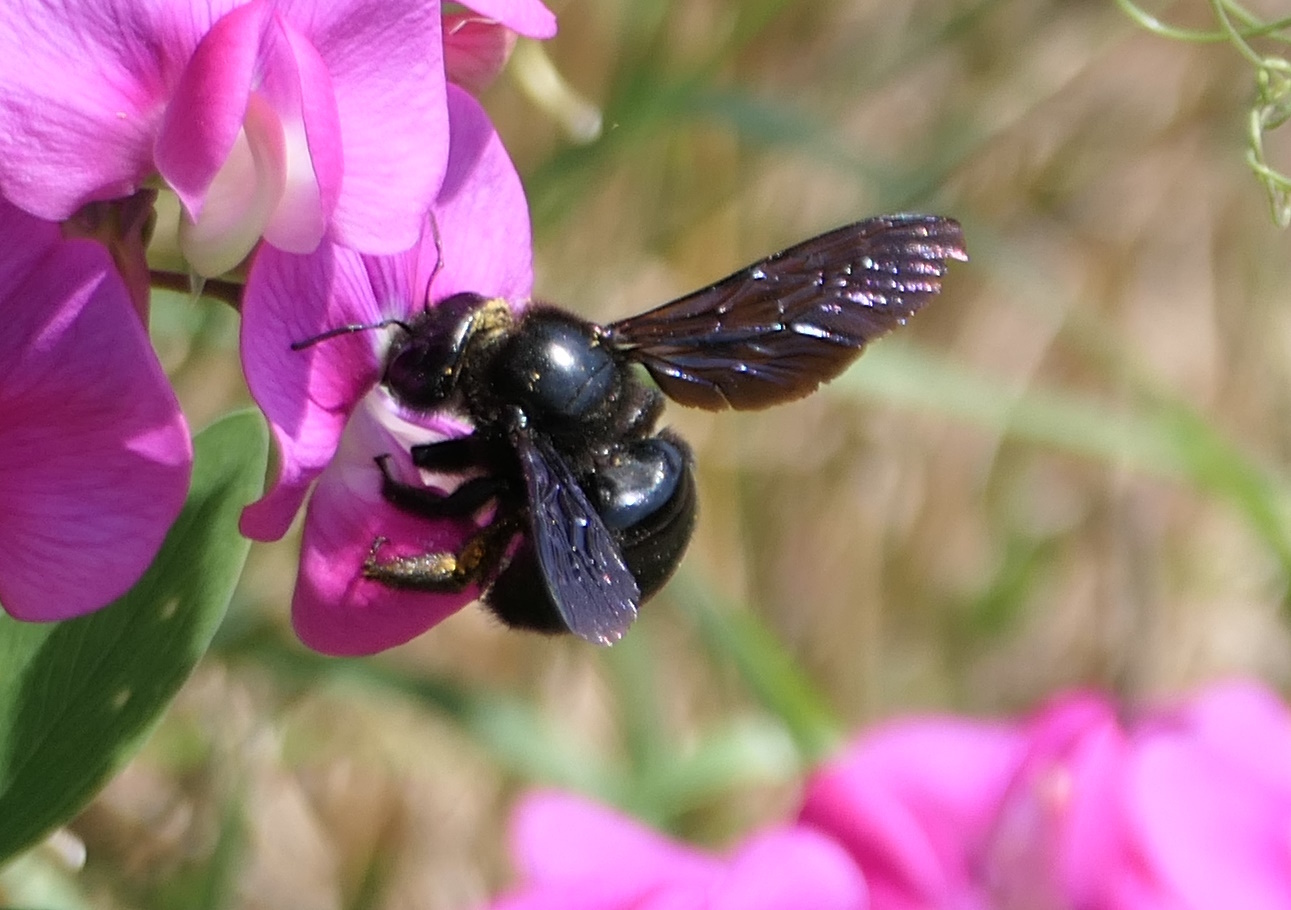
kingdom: Animalia
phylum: Arthropoda
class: Insecta
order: Hymenoptera
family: Apidae
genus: Xylocopa
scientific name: Xylocopa violacea
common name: Violet carpenter bee
